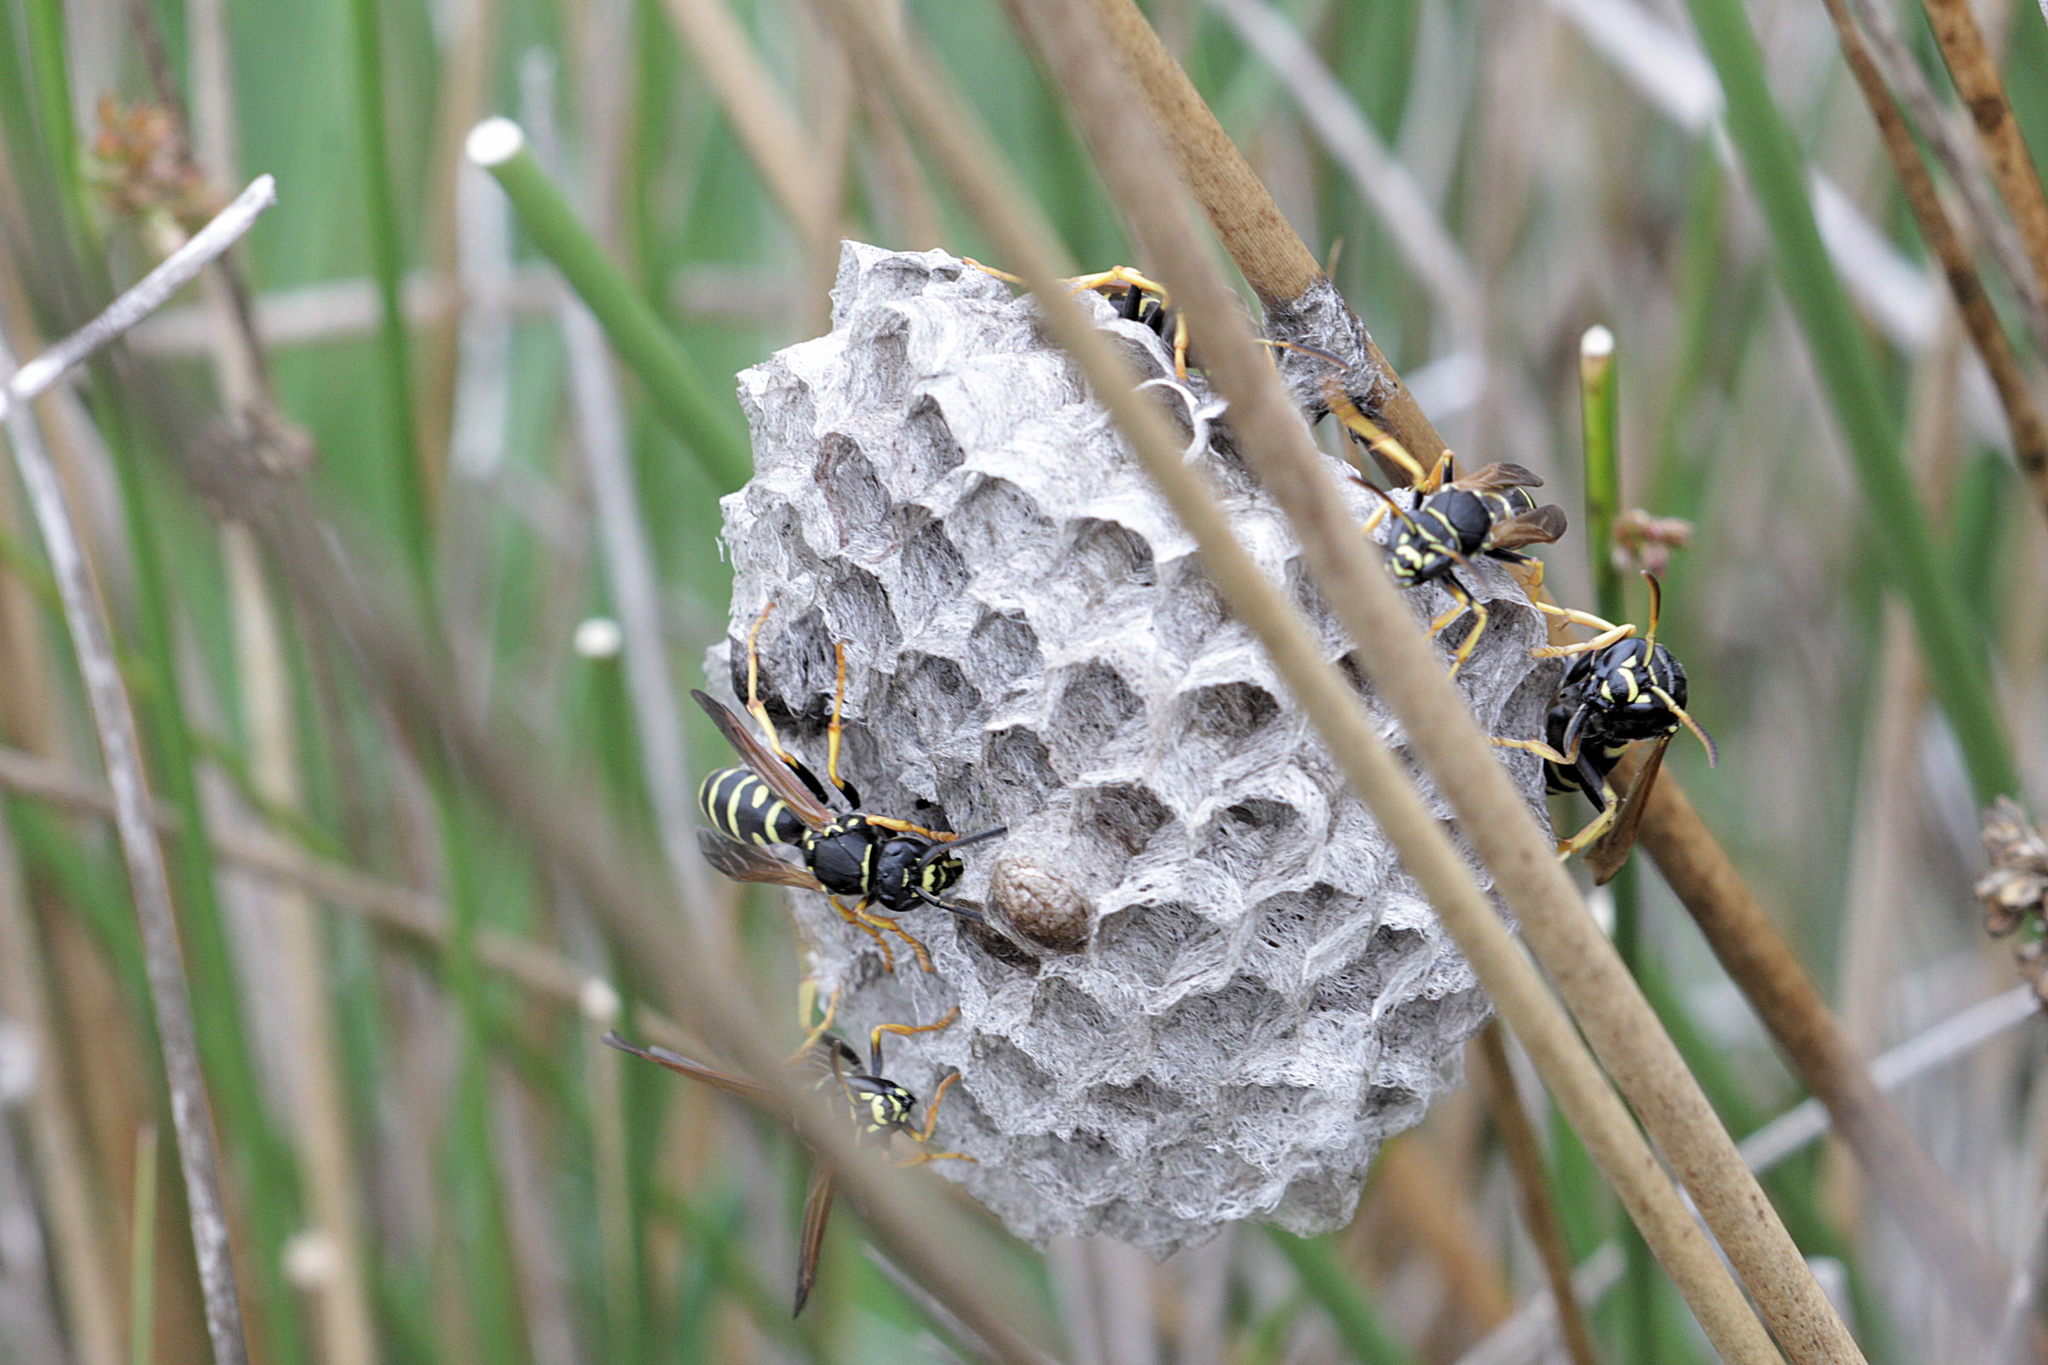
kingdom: Animalia
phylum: Arthropoda
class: Insecta
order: Hymenoptera
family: Eumenidae
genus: Polistes
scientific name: Polistes biglumis
